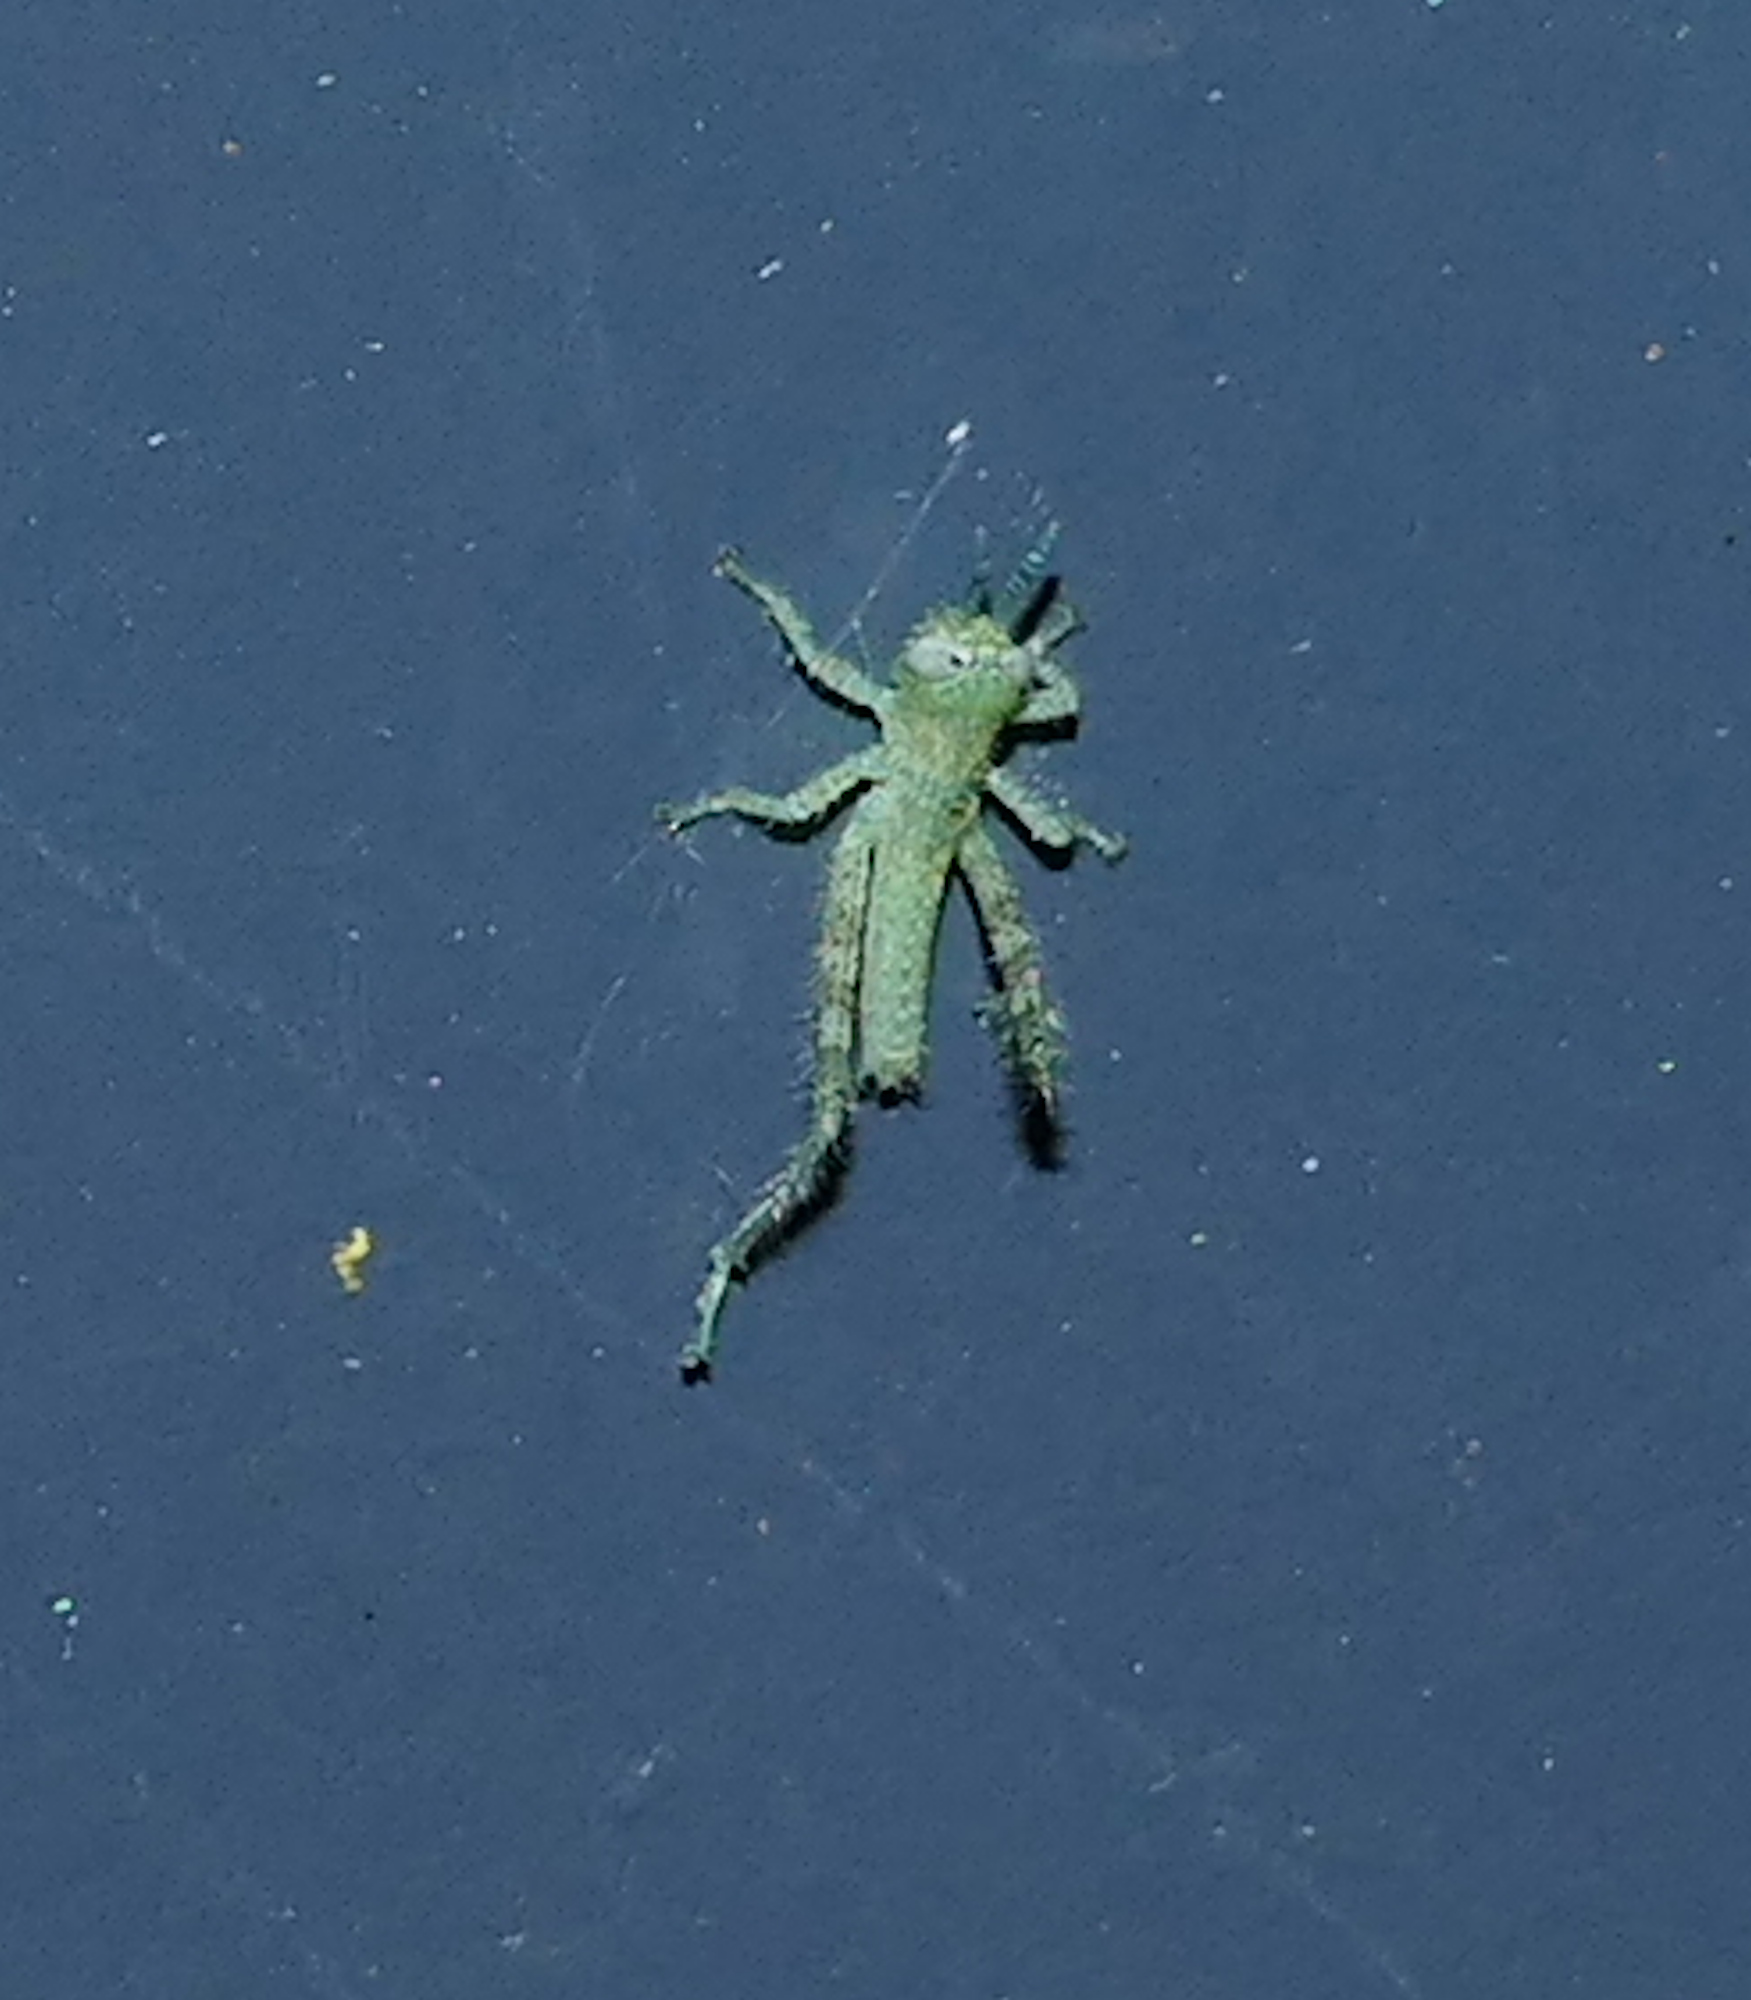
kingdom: Animalia
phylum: Arthropoda
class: Insecta
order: Orthoptera
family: Acrididae
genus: Schistocerca
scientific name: Schistocerca nitens
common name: Vagrant grasshopper
